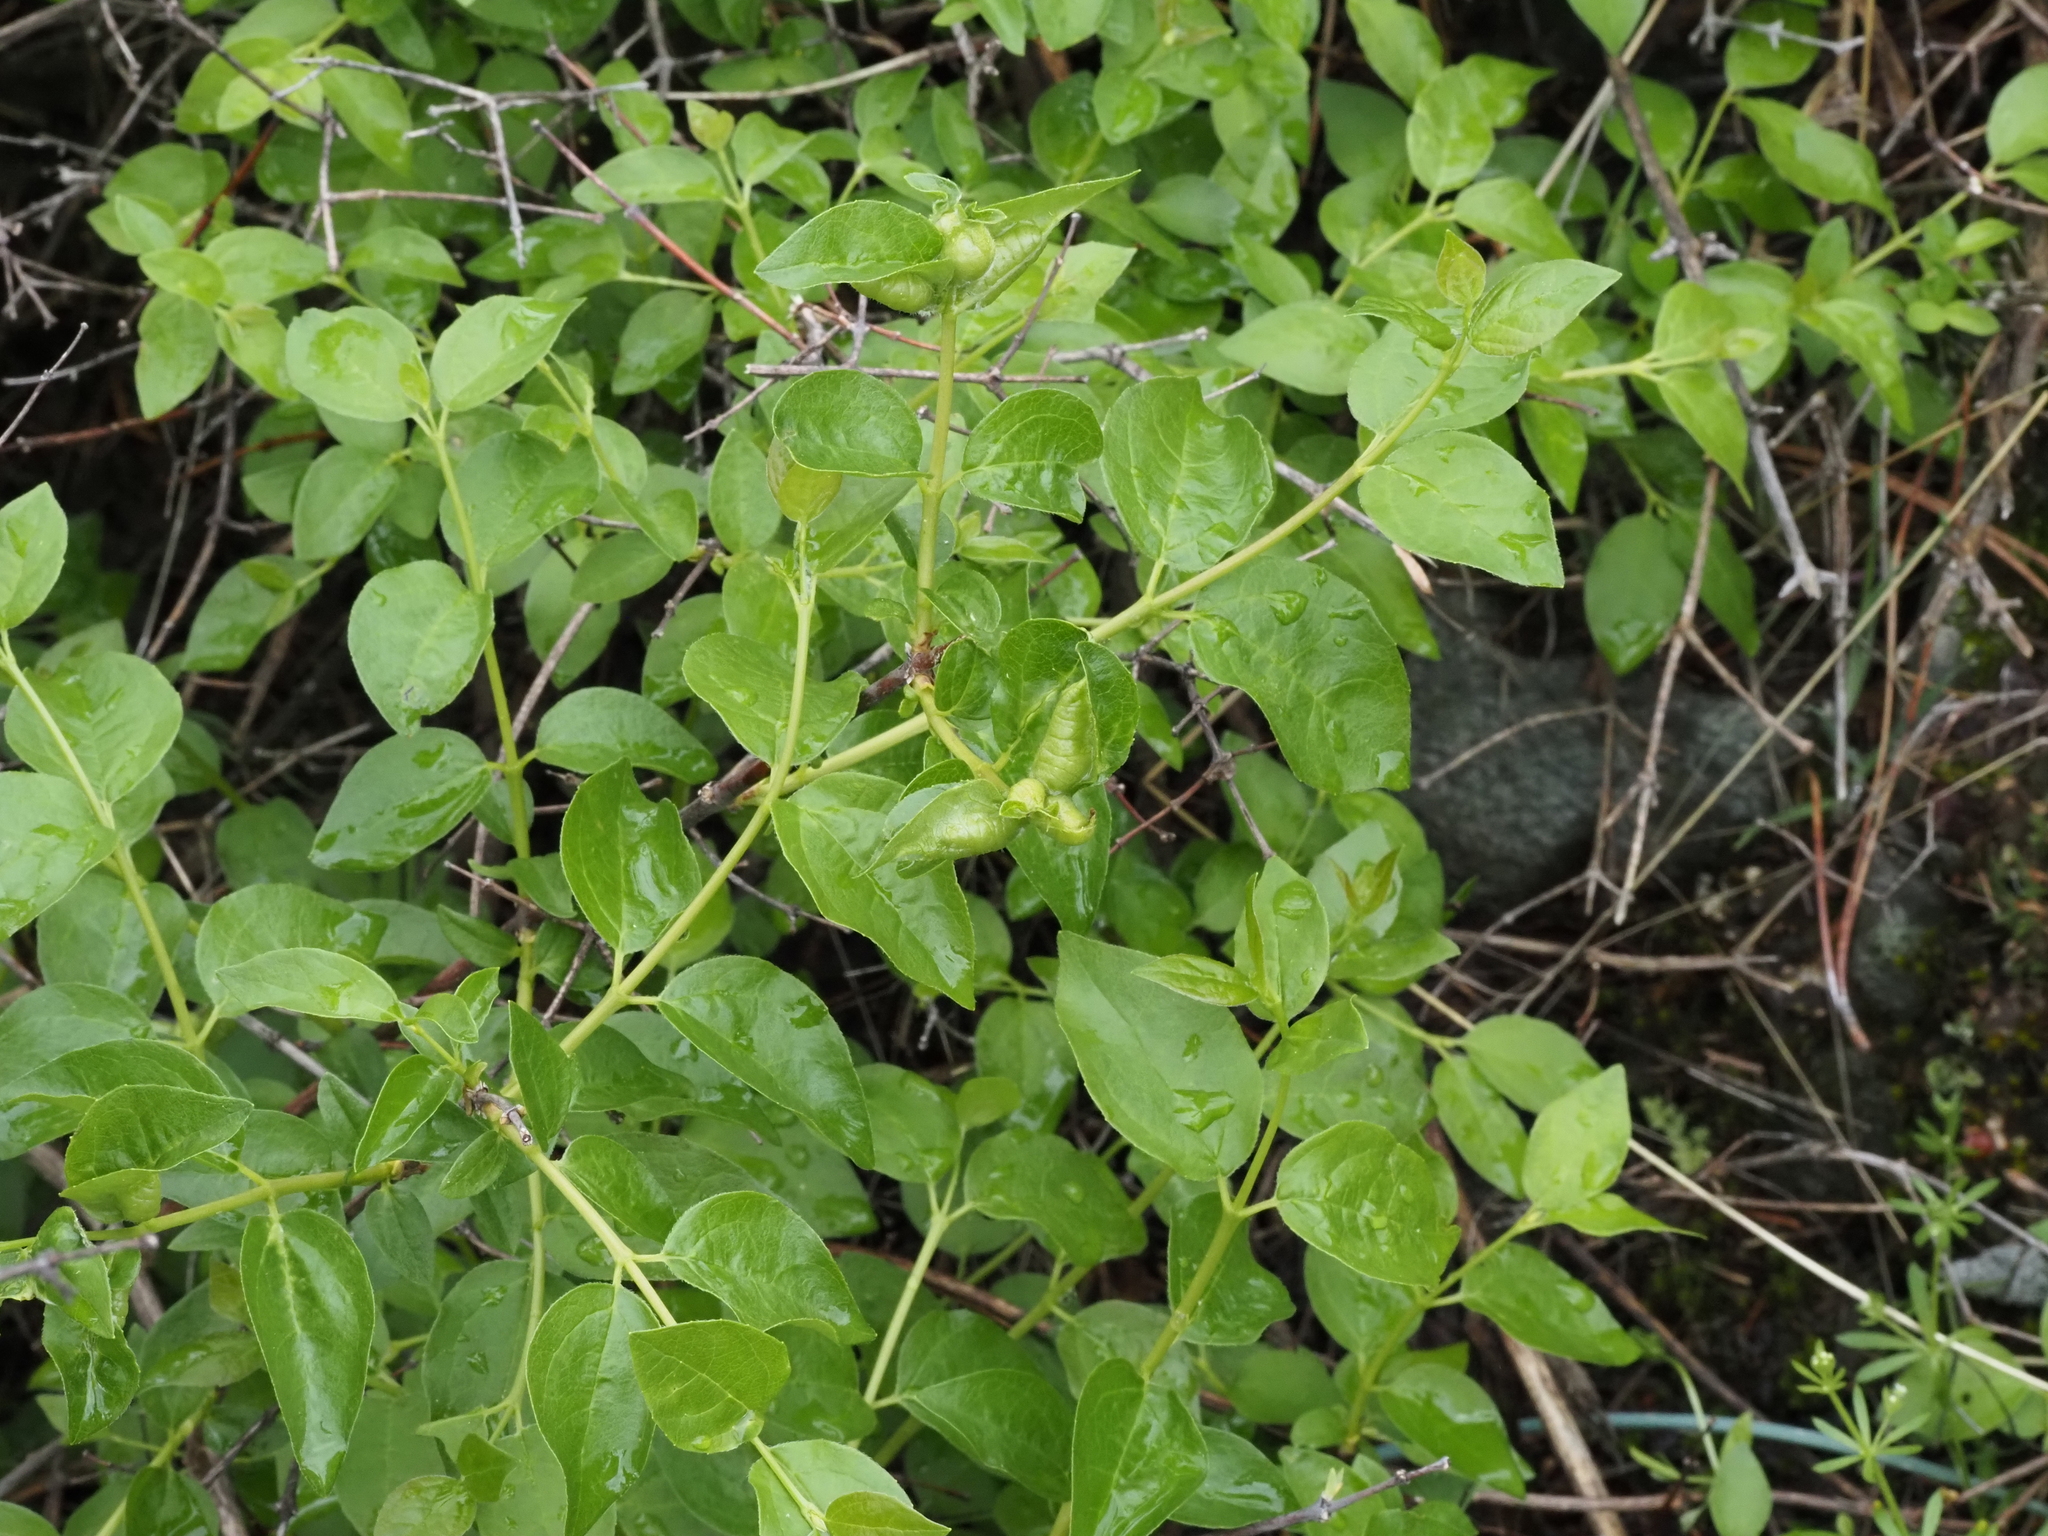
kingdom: Plantae
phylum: Tracheophyta
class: Magnoliopsida
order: Cornales
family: Hydrangeaceae
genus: Philadelphus
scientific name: Philadelphus lewisii
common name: Lewis's mock orange
